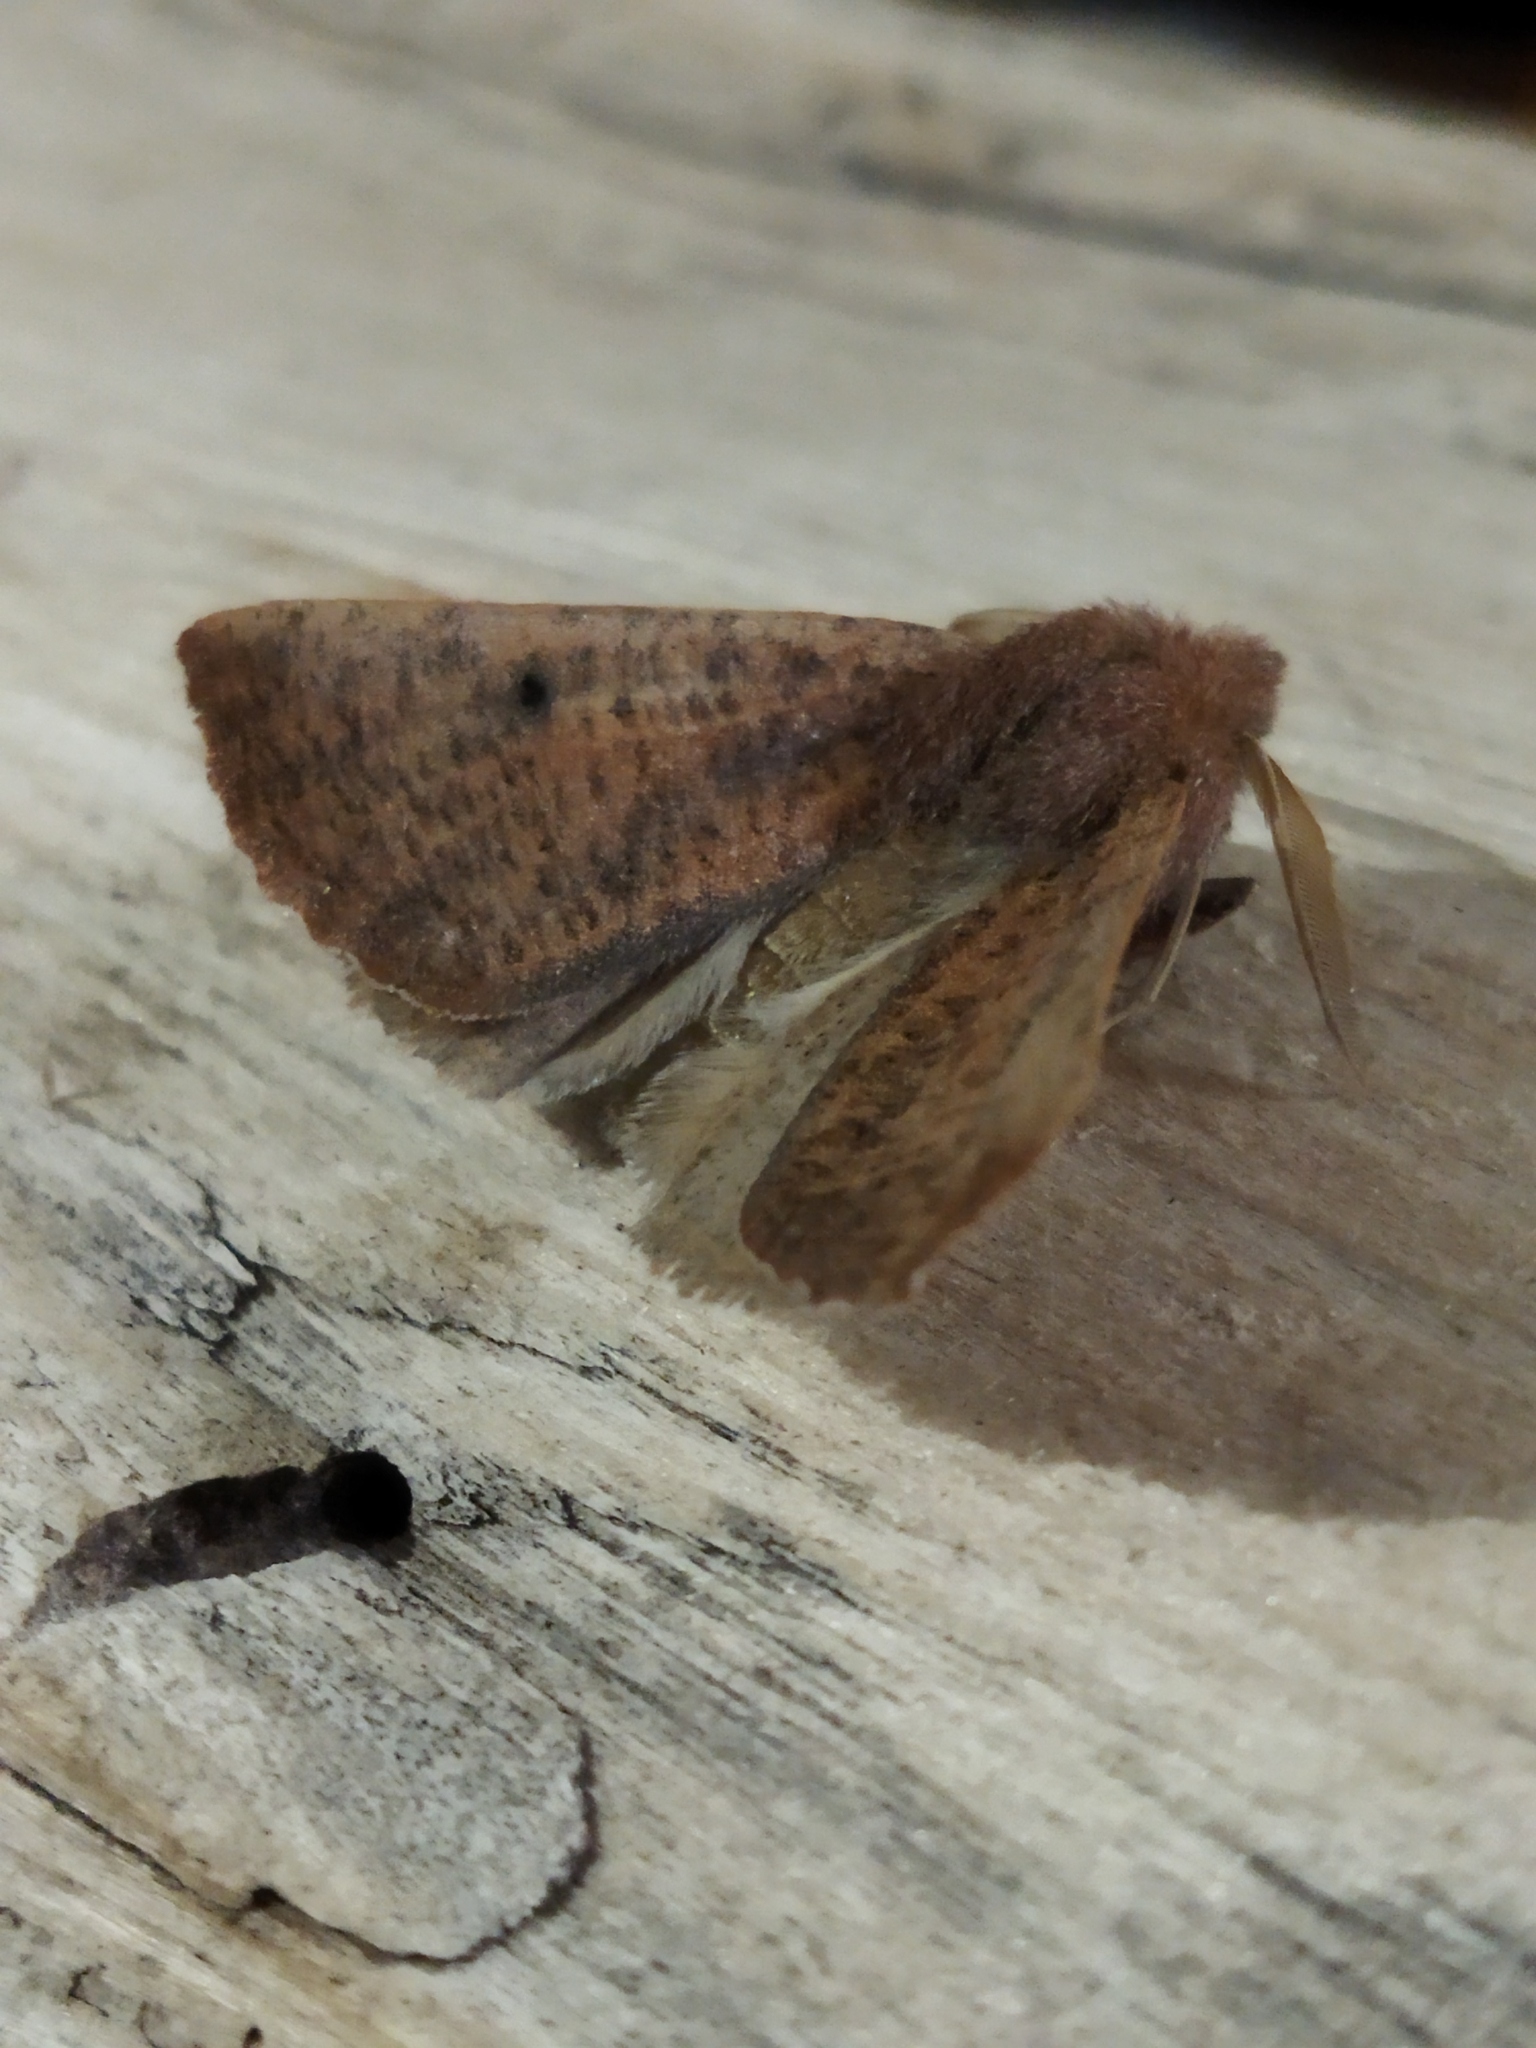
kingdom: Animalia
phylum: Arthropoda
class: Insecta
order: Lepidoptera
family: Geometridae
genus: Dasycorsa
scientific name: Dasycorsa modesta
